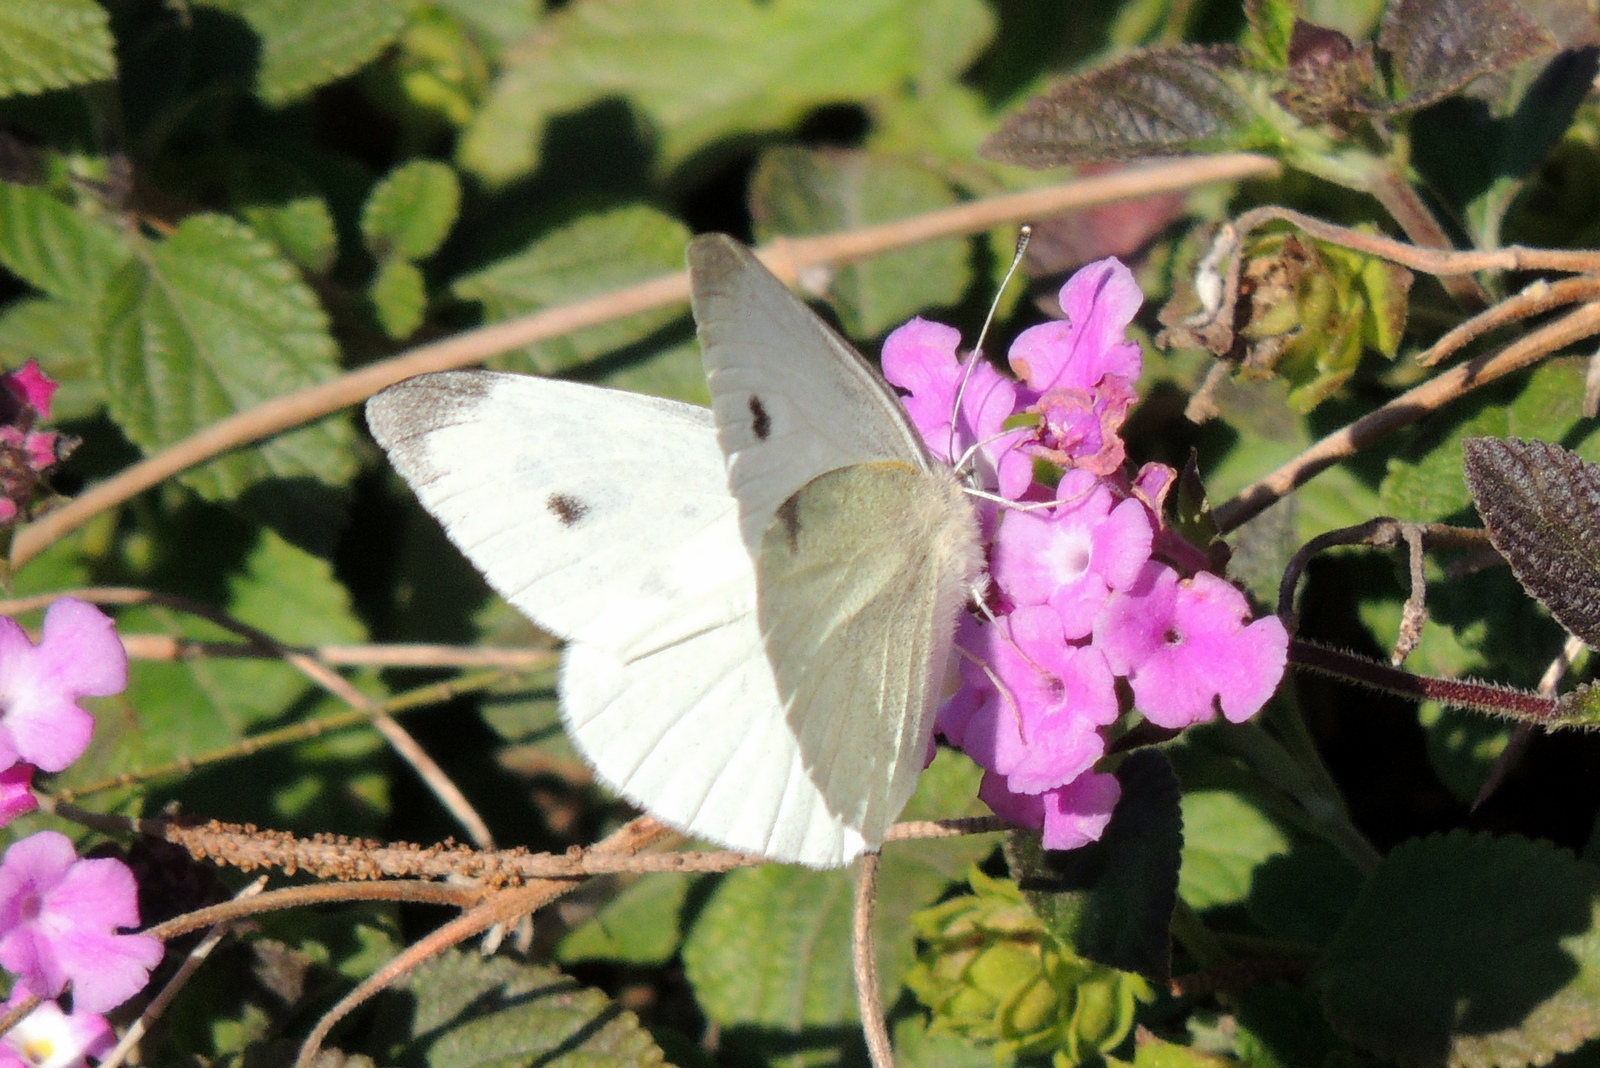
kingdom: Animalia
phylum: Arthropoda
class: Insecta
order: Lepidoptera
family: Pieridae
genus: Pieris
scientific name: Pieris rapae
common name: Small white
